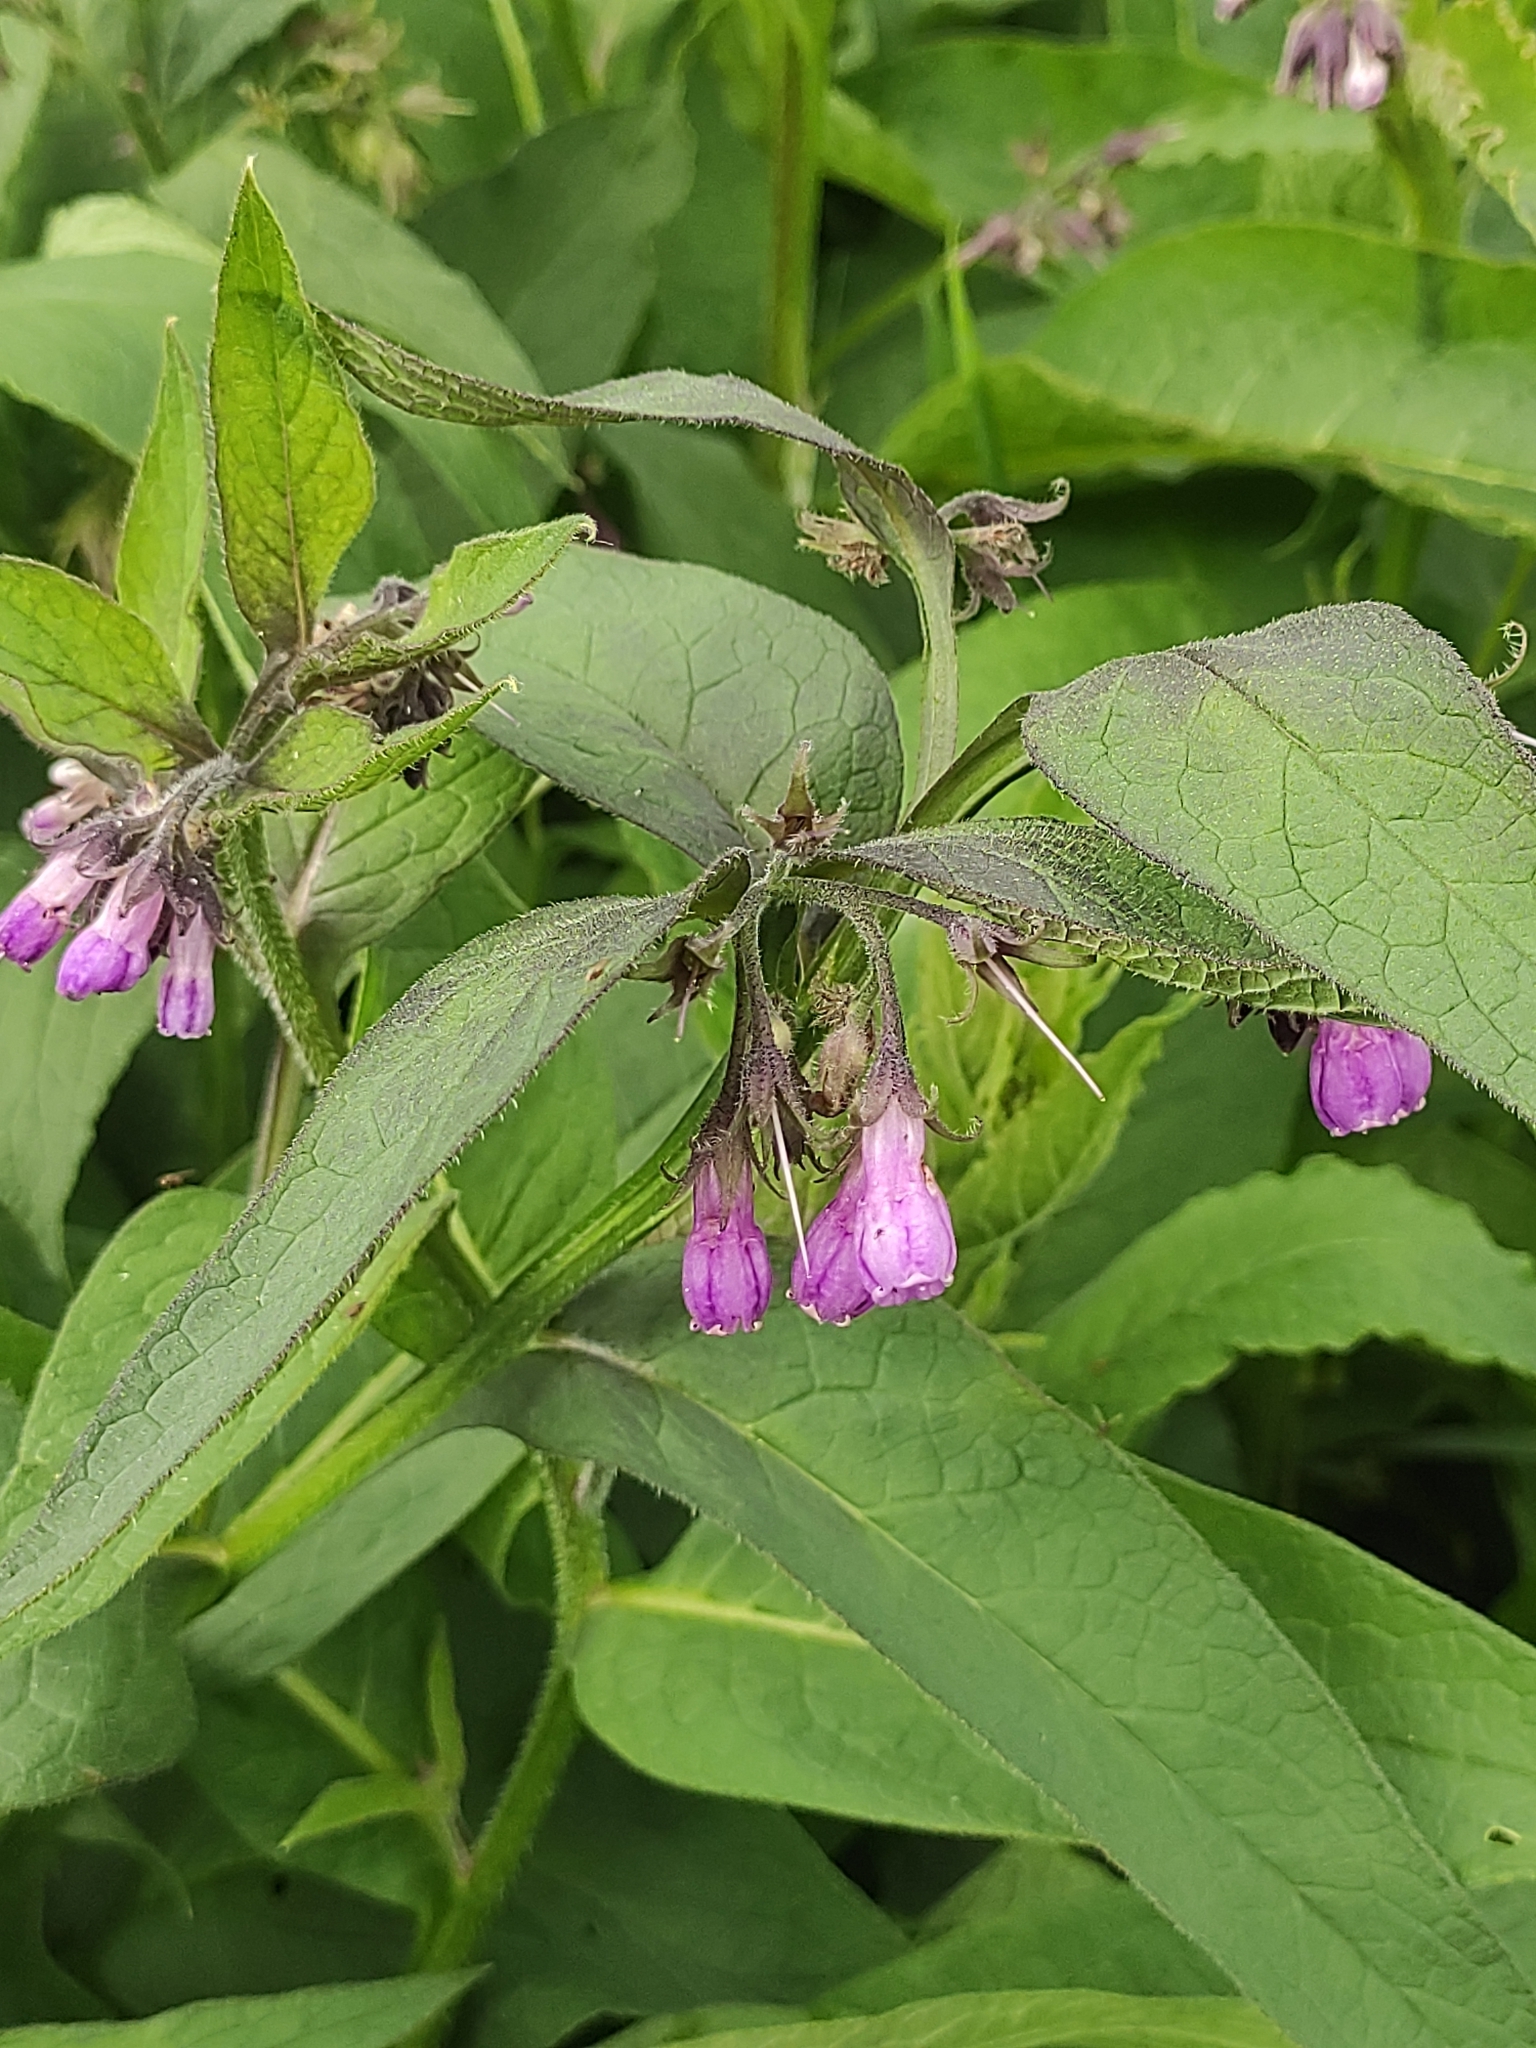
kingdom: Plantae
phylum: Tracheophyta
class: Magnoliopsida
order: Boraginales
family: Boraginaceae
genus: Symphytum
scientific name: Symphytum officinale
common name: Common comfrey
